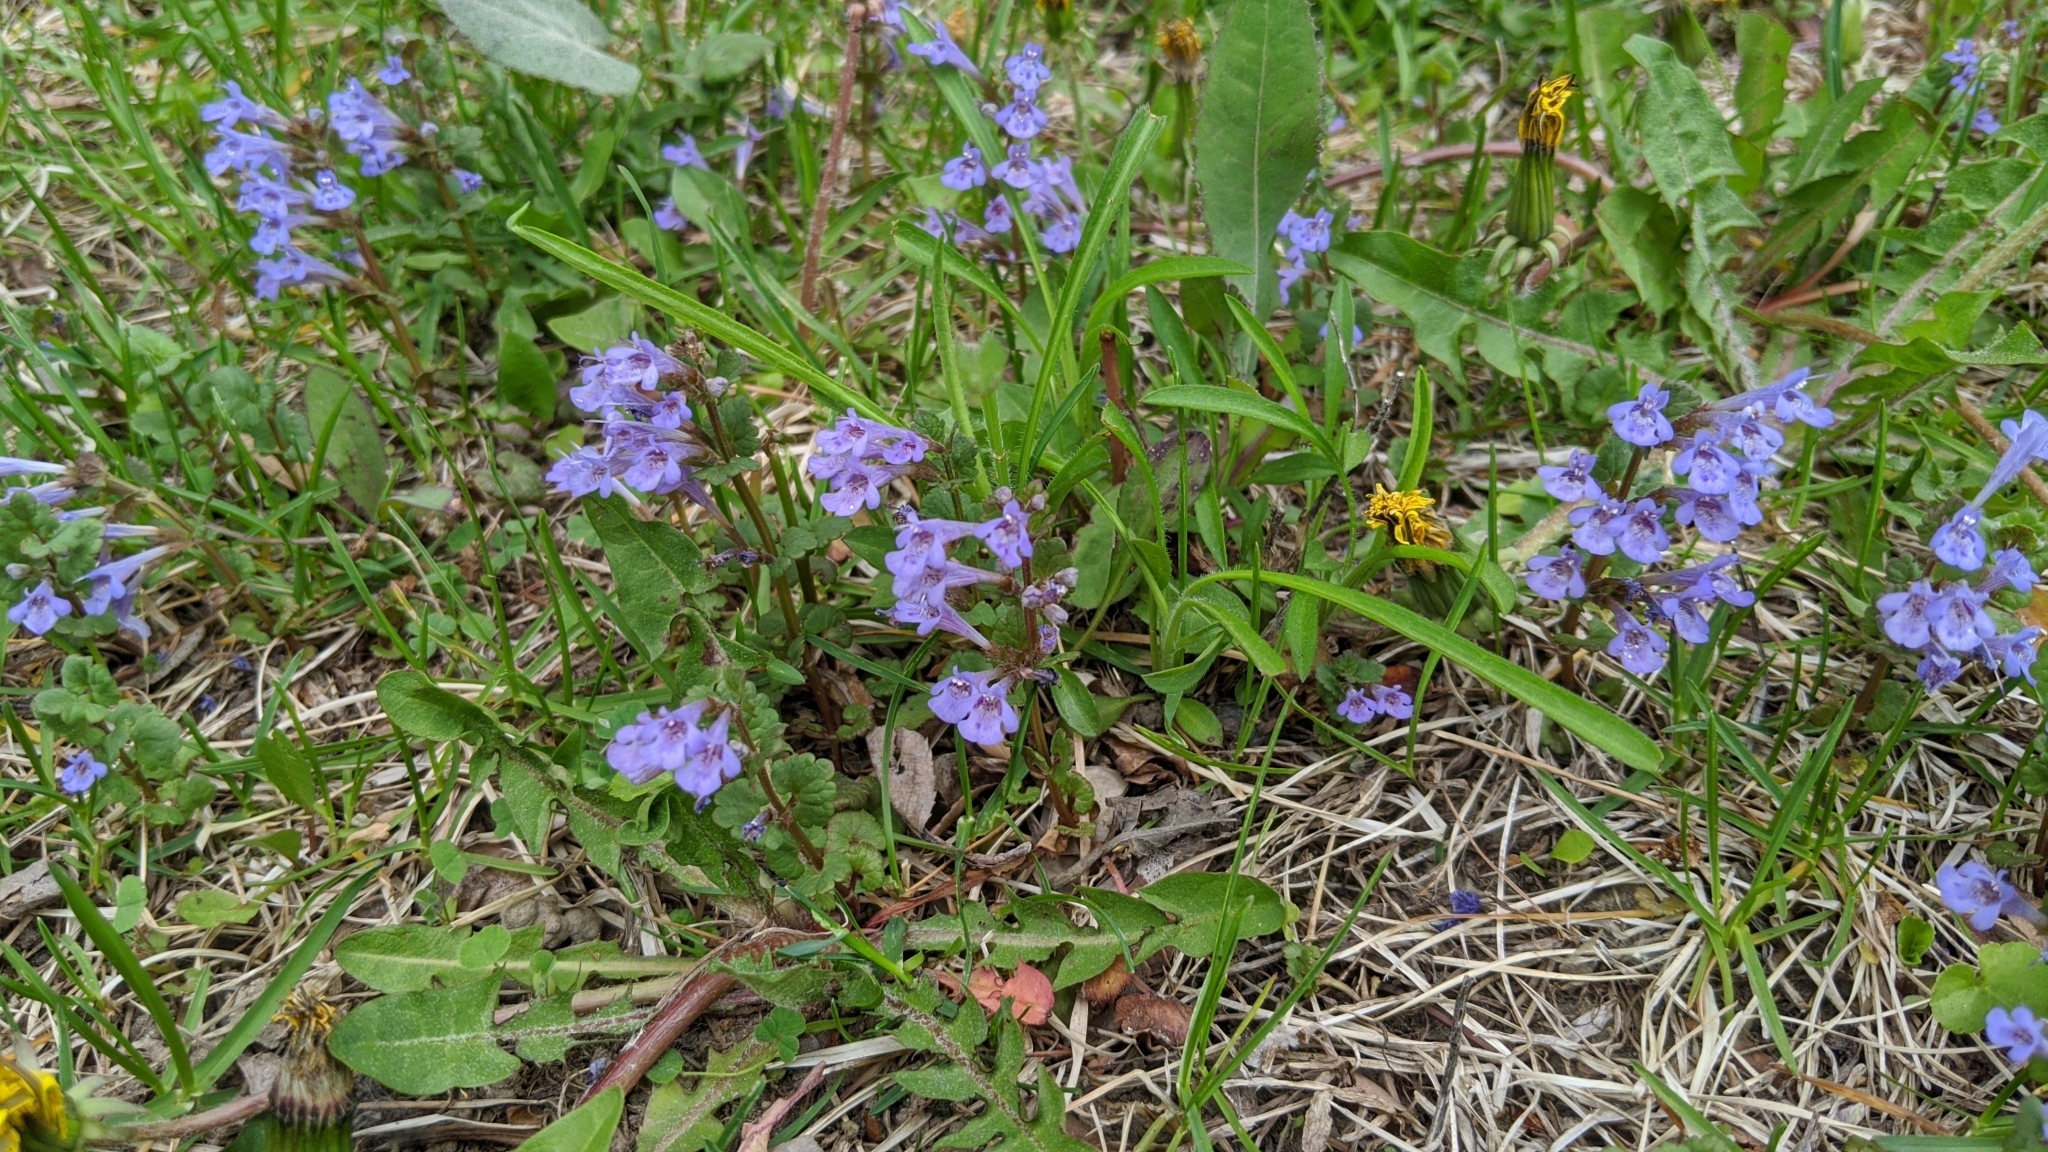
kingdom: Plantae
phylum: Tracheophyta
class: Magnoliopsida
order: Lamiales
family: Lamiaceae
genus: Glechoma
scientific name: Glechoma hederacea
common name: Ground ivy
